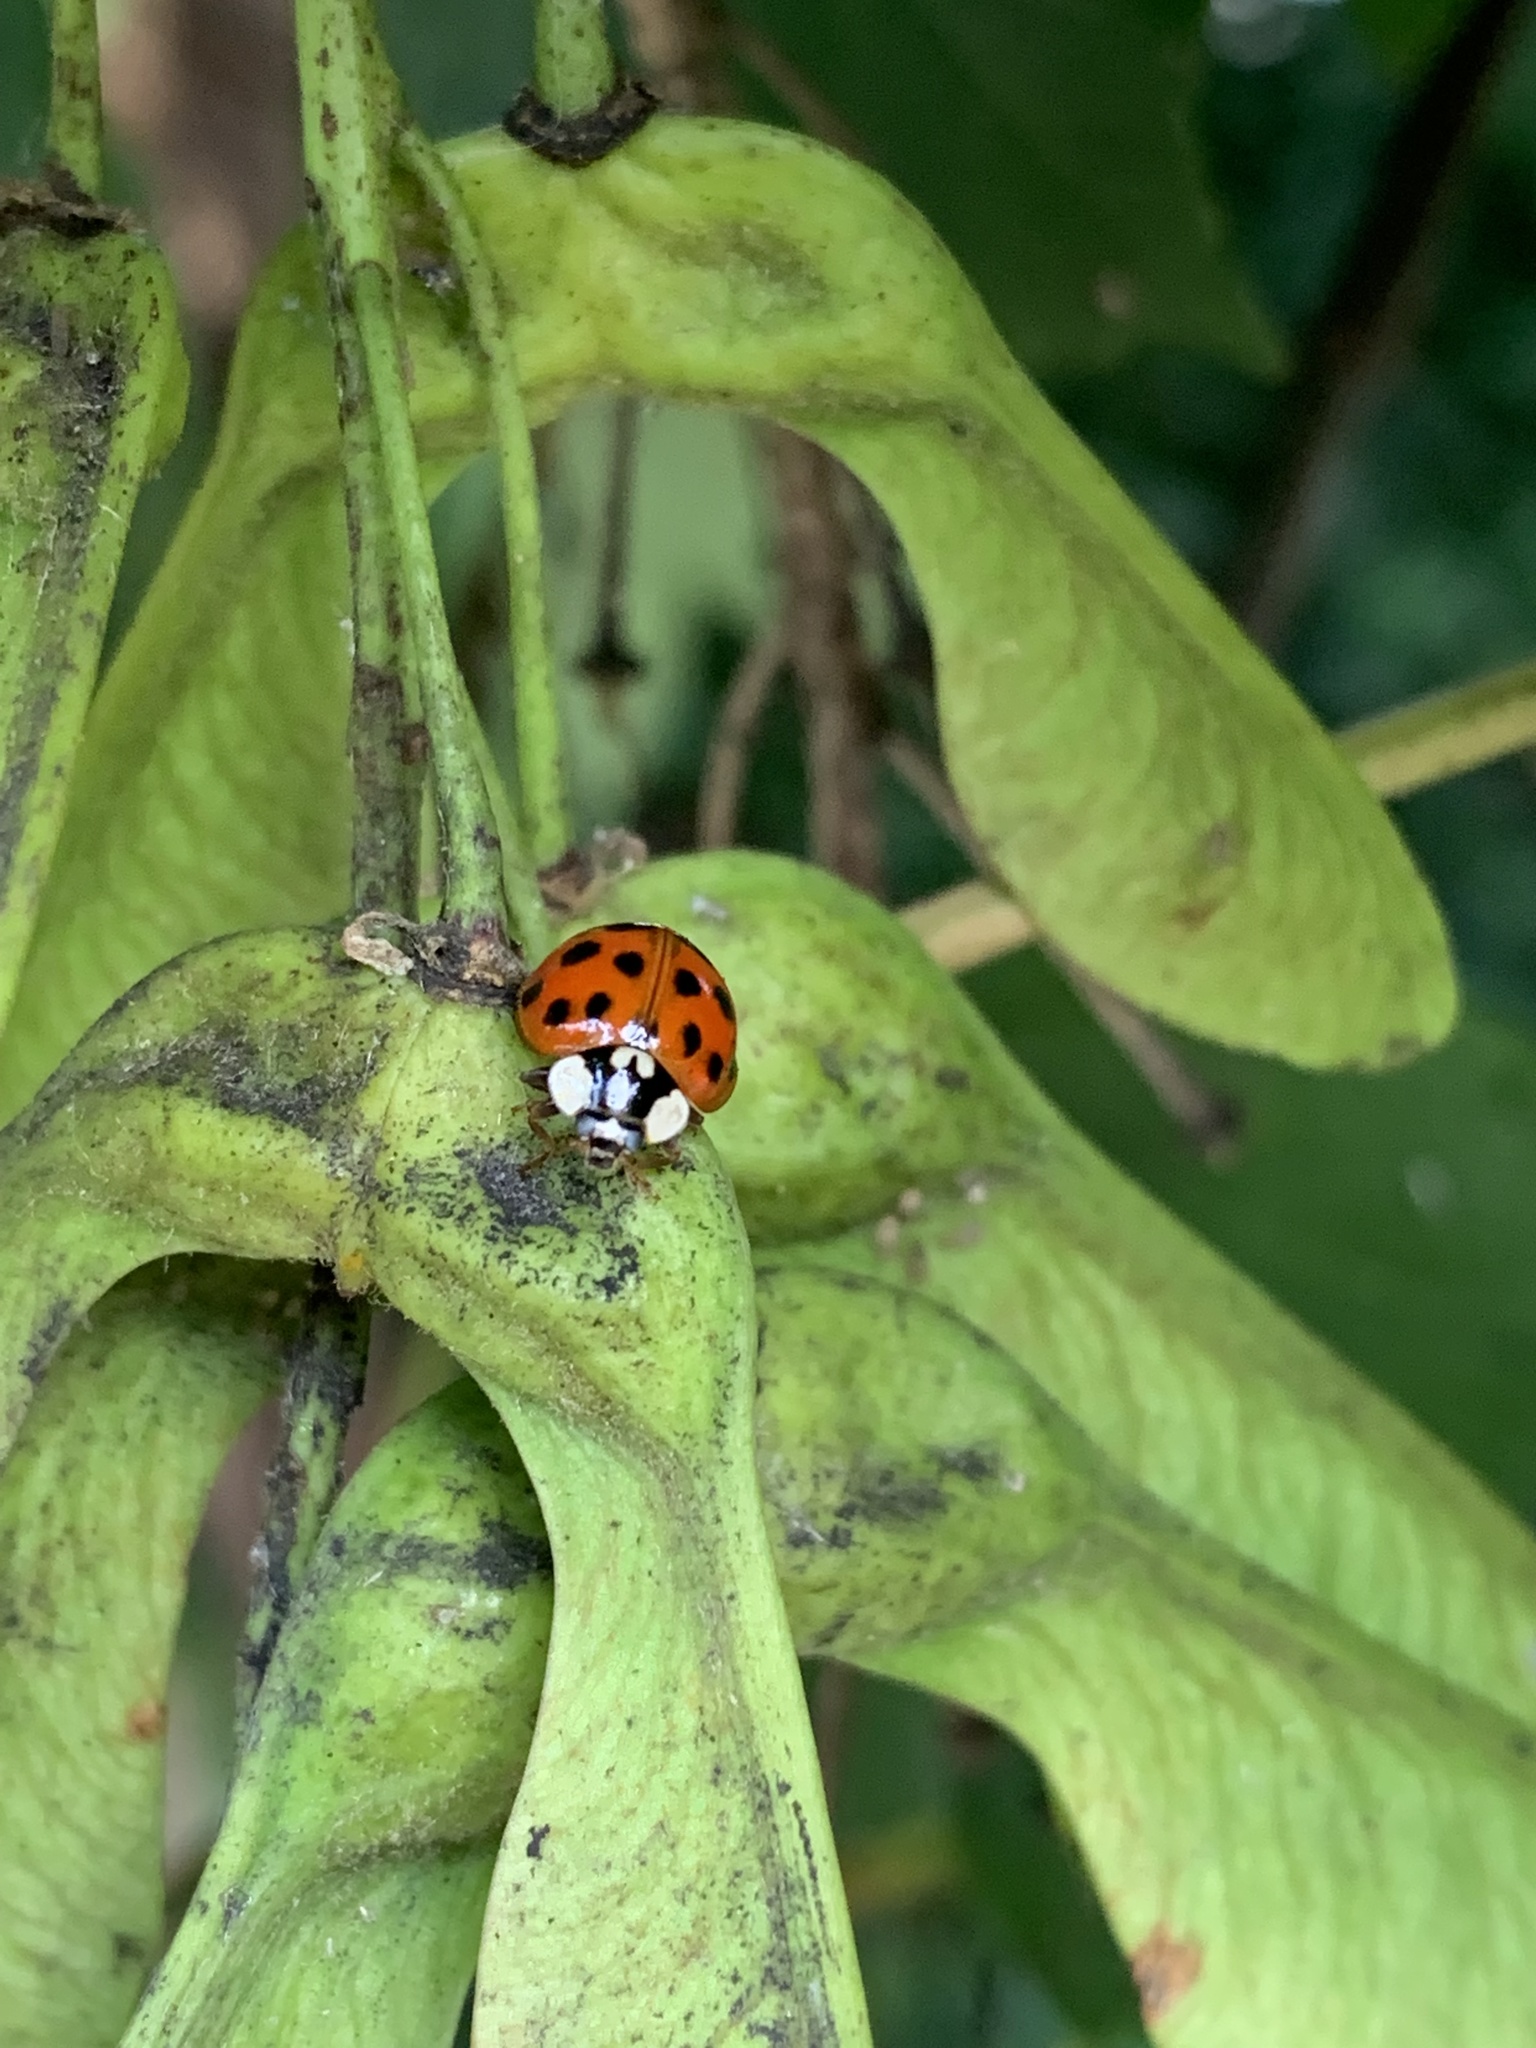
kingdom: Animalia
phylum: Arthropoda
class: Insecta
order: Coleoptera
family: Coccinellidae
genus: Harmonia
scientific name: Harmonia axyridis
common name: Harlequin ladybird
